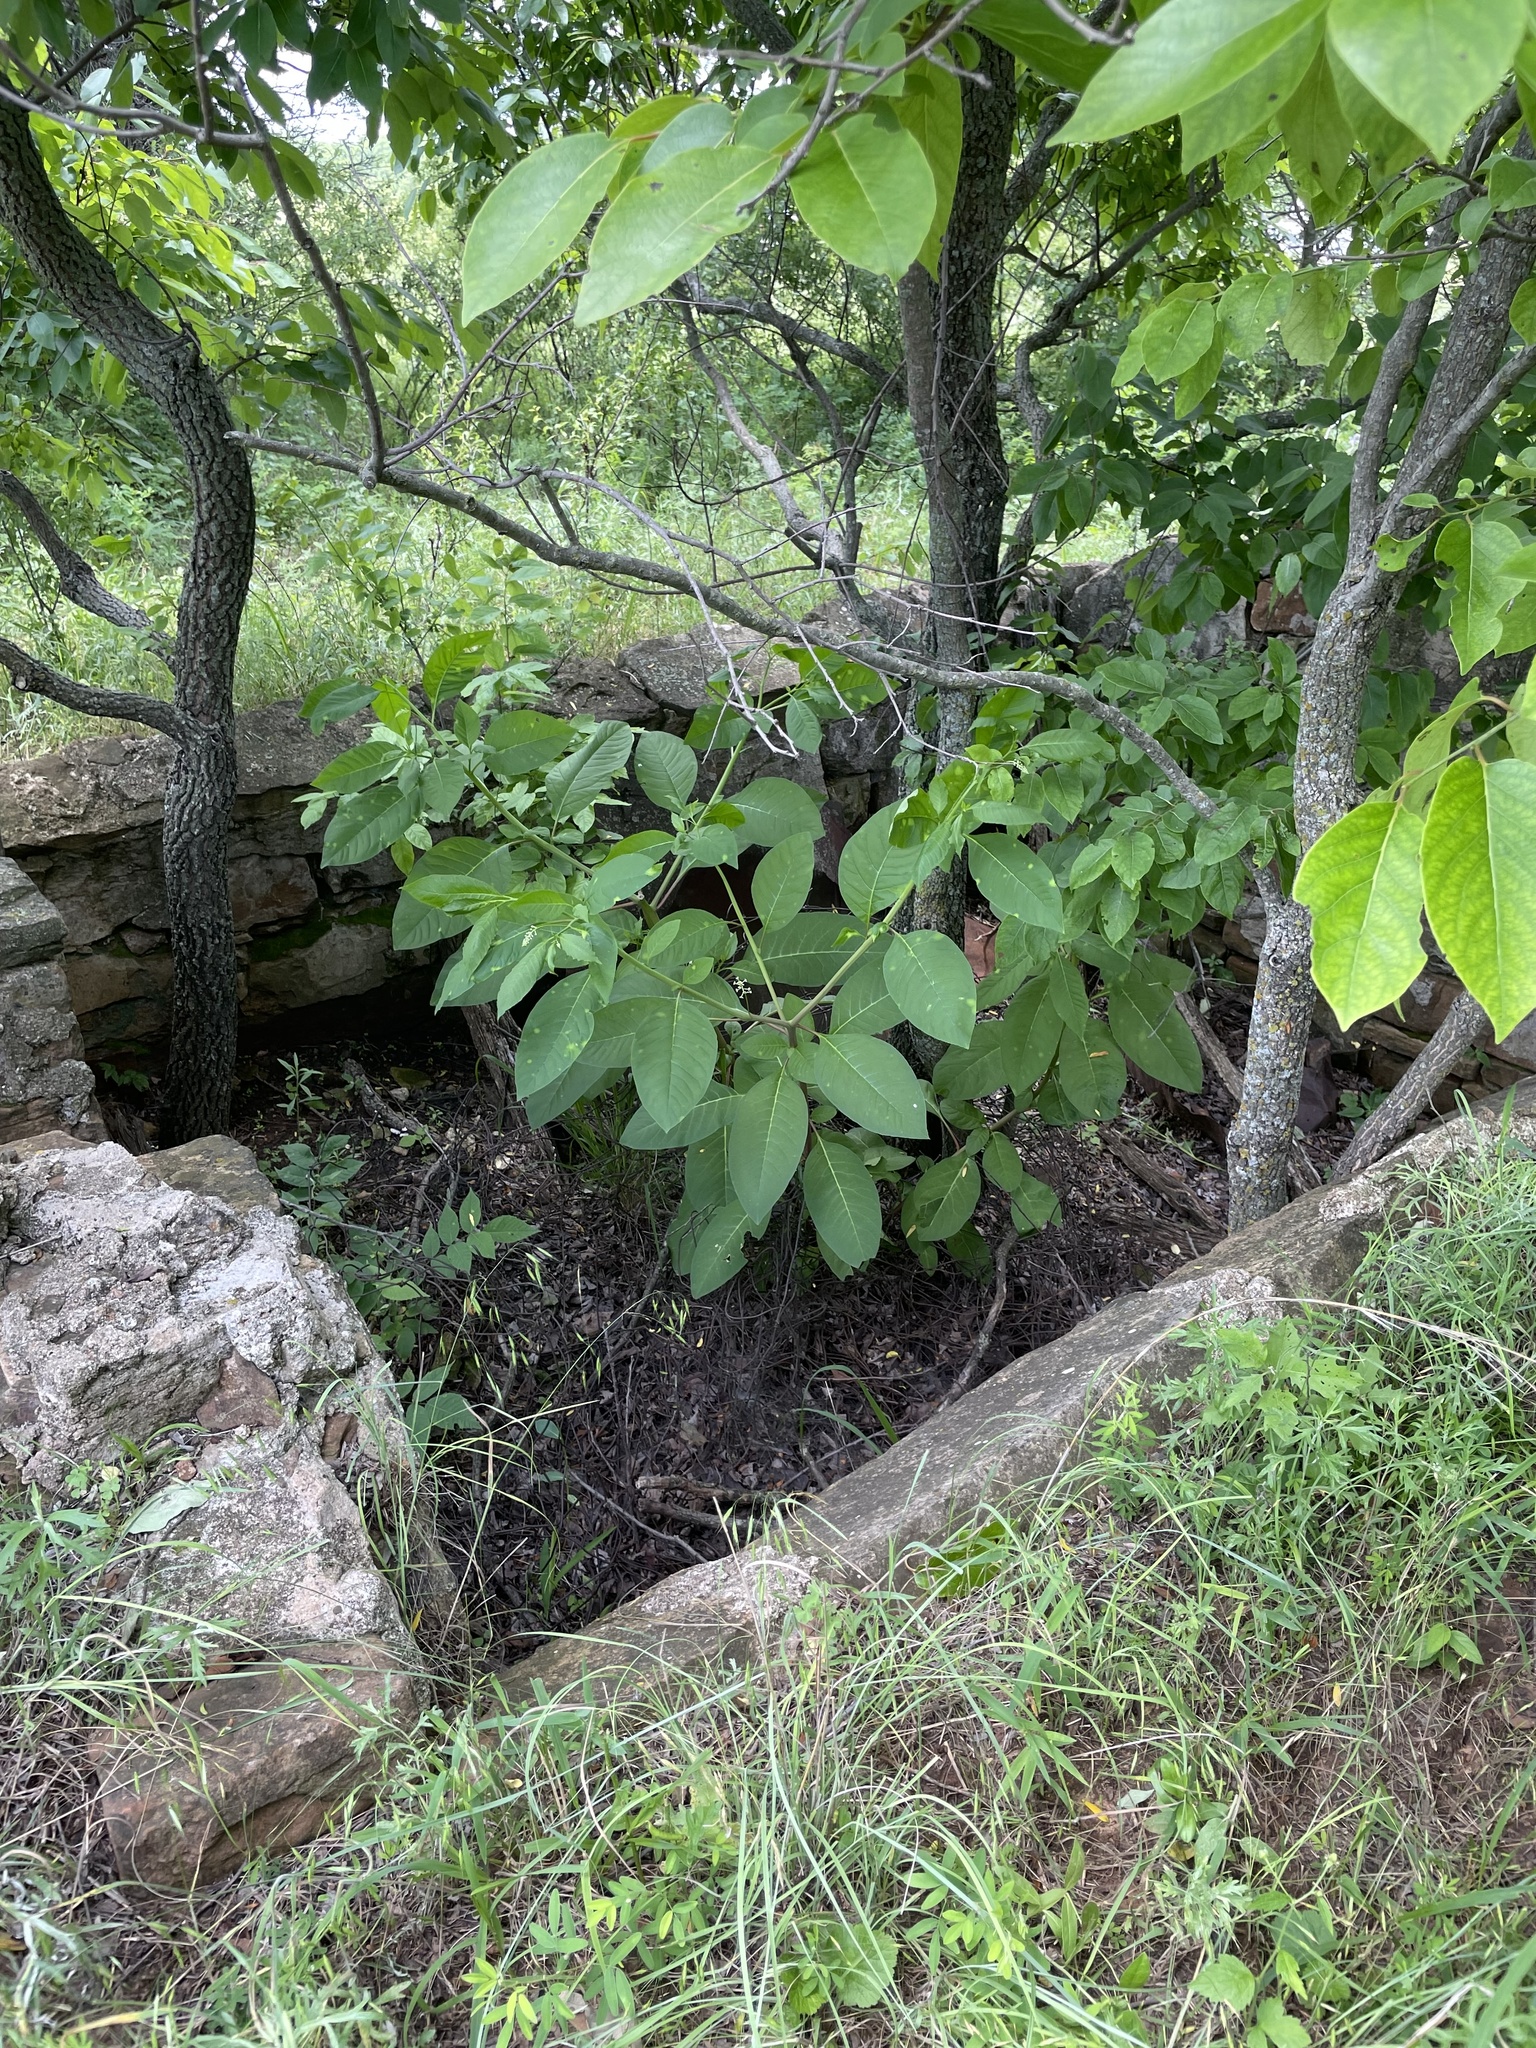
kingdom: Plantae
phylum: Tracheophyta
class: Magnoliopsida
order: Caryophyllales
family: Phytolaccaceae
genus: Phytolacca
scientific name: Phytolacca americana
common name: American pokeweed
